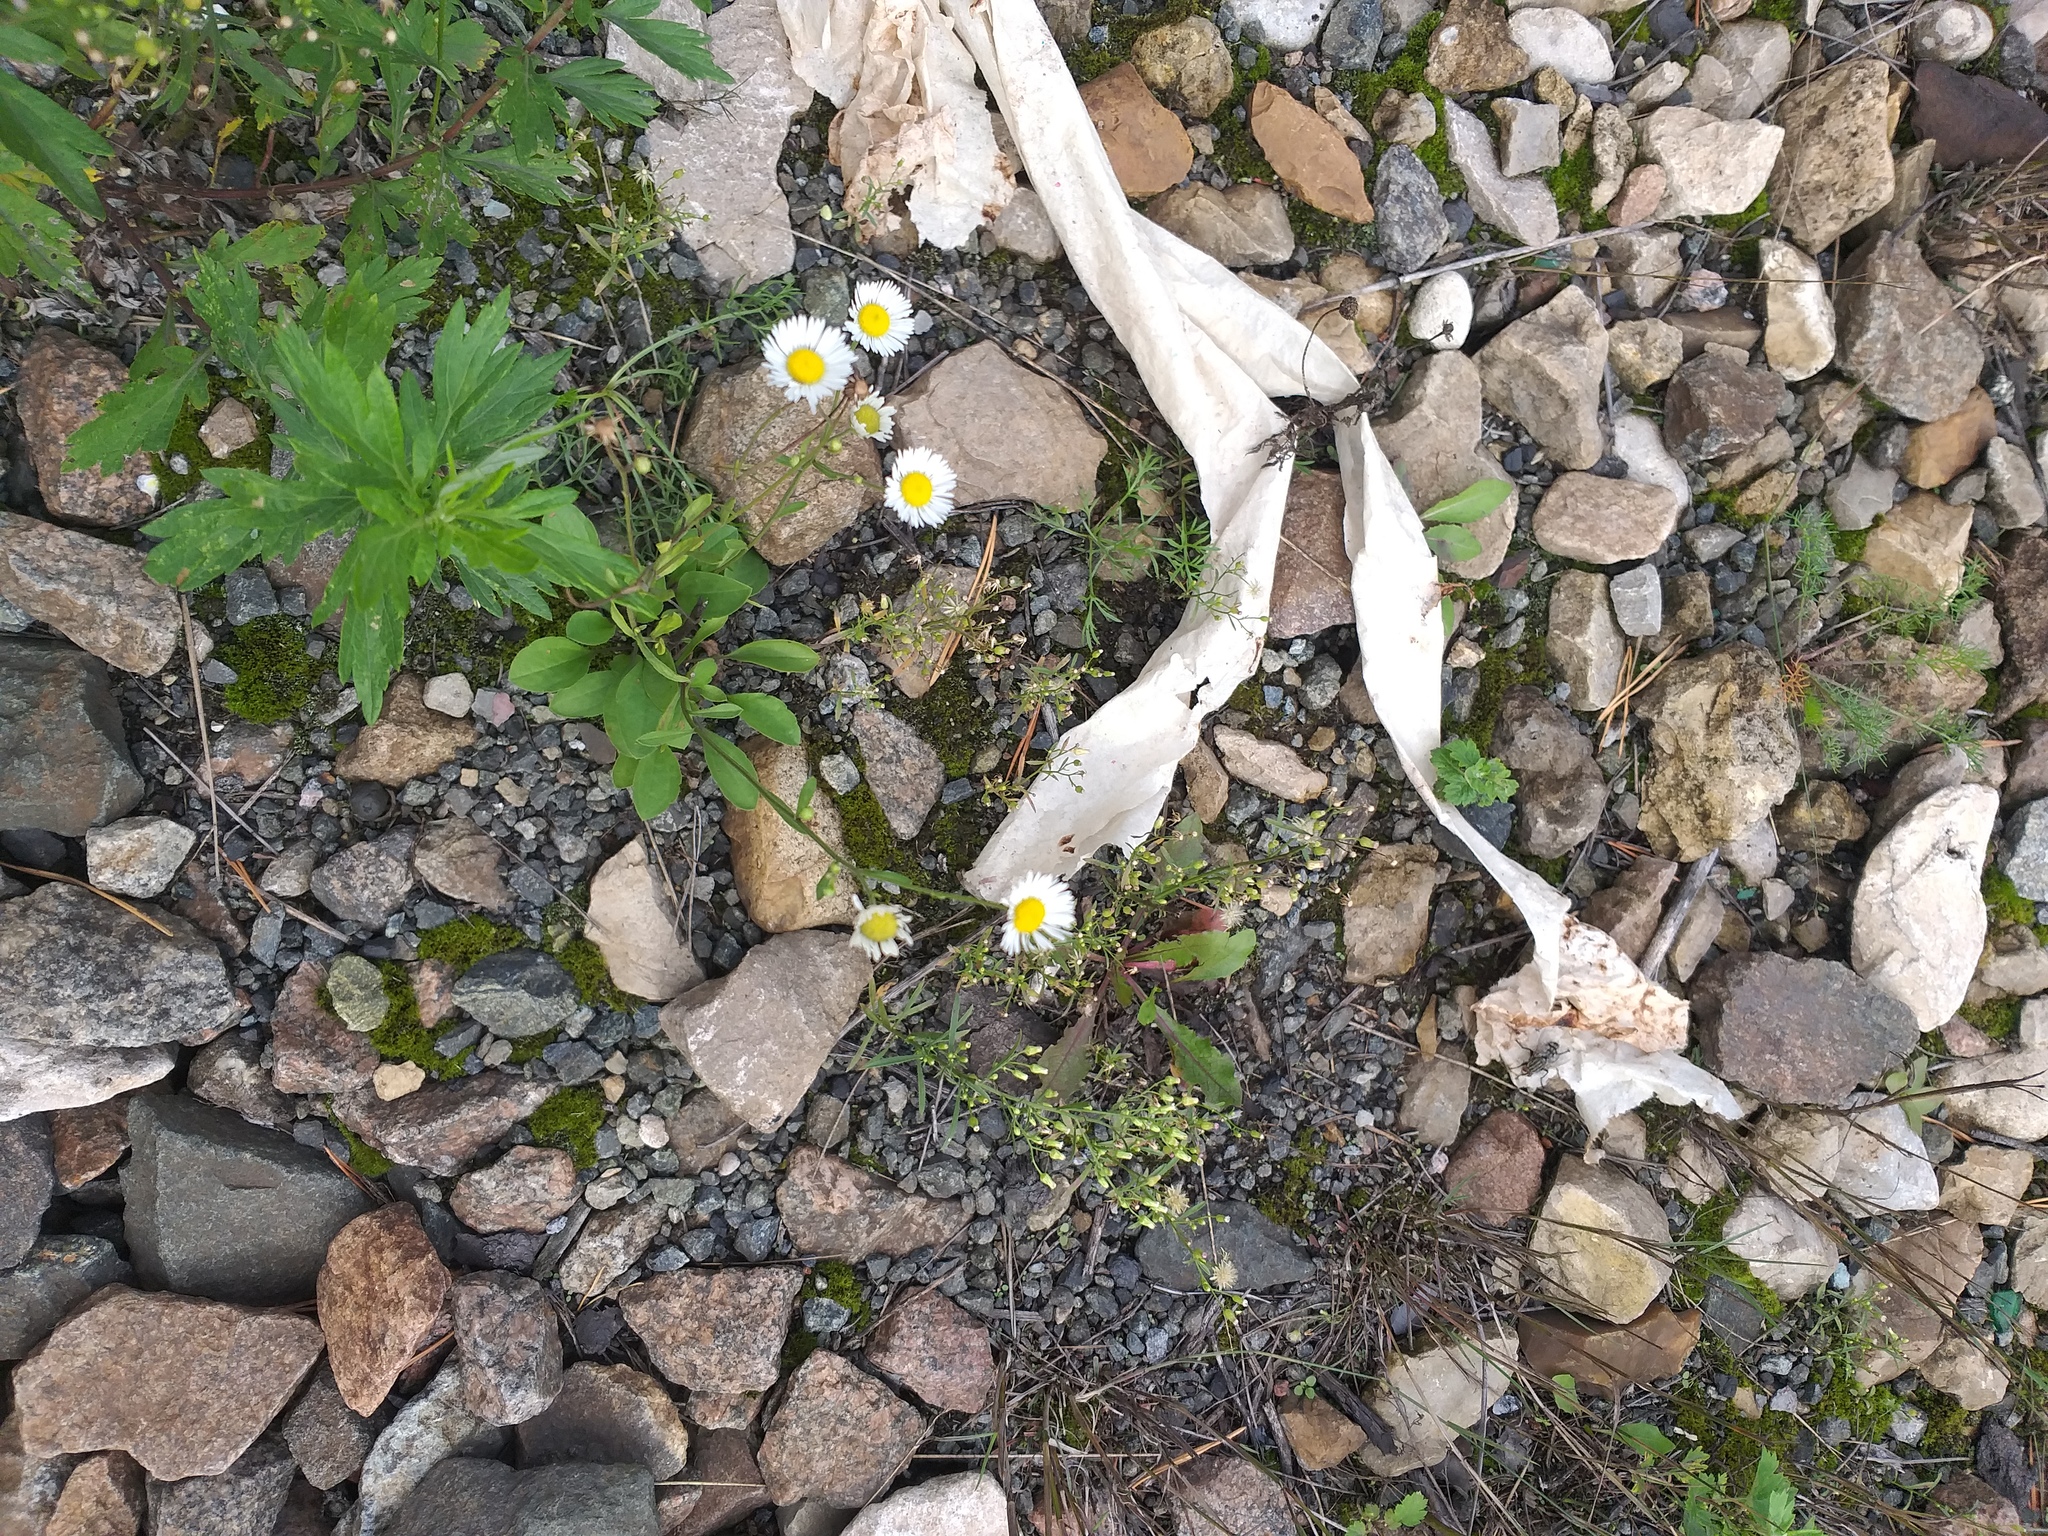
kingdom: Plantae
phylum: Tracheophyta
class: Magnoliopsida
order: Asterales
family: Asteraceae
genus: Erigeron
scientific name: Erigeron annuus
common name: Tall fleabane
